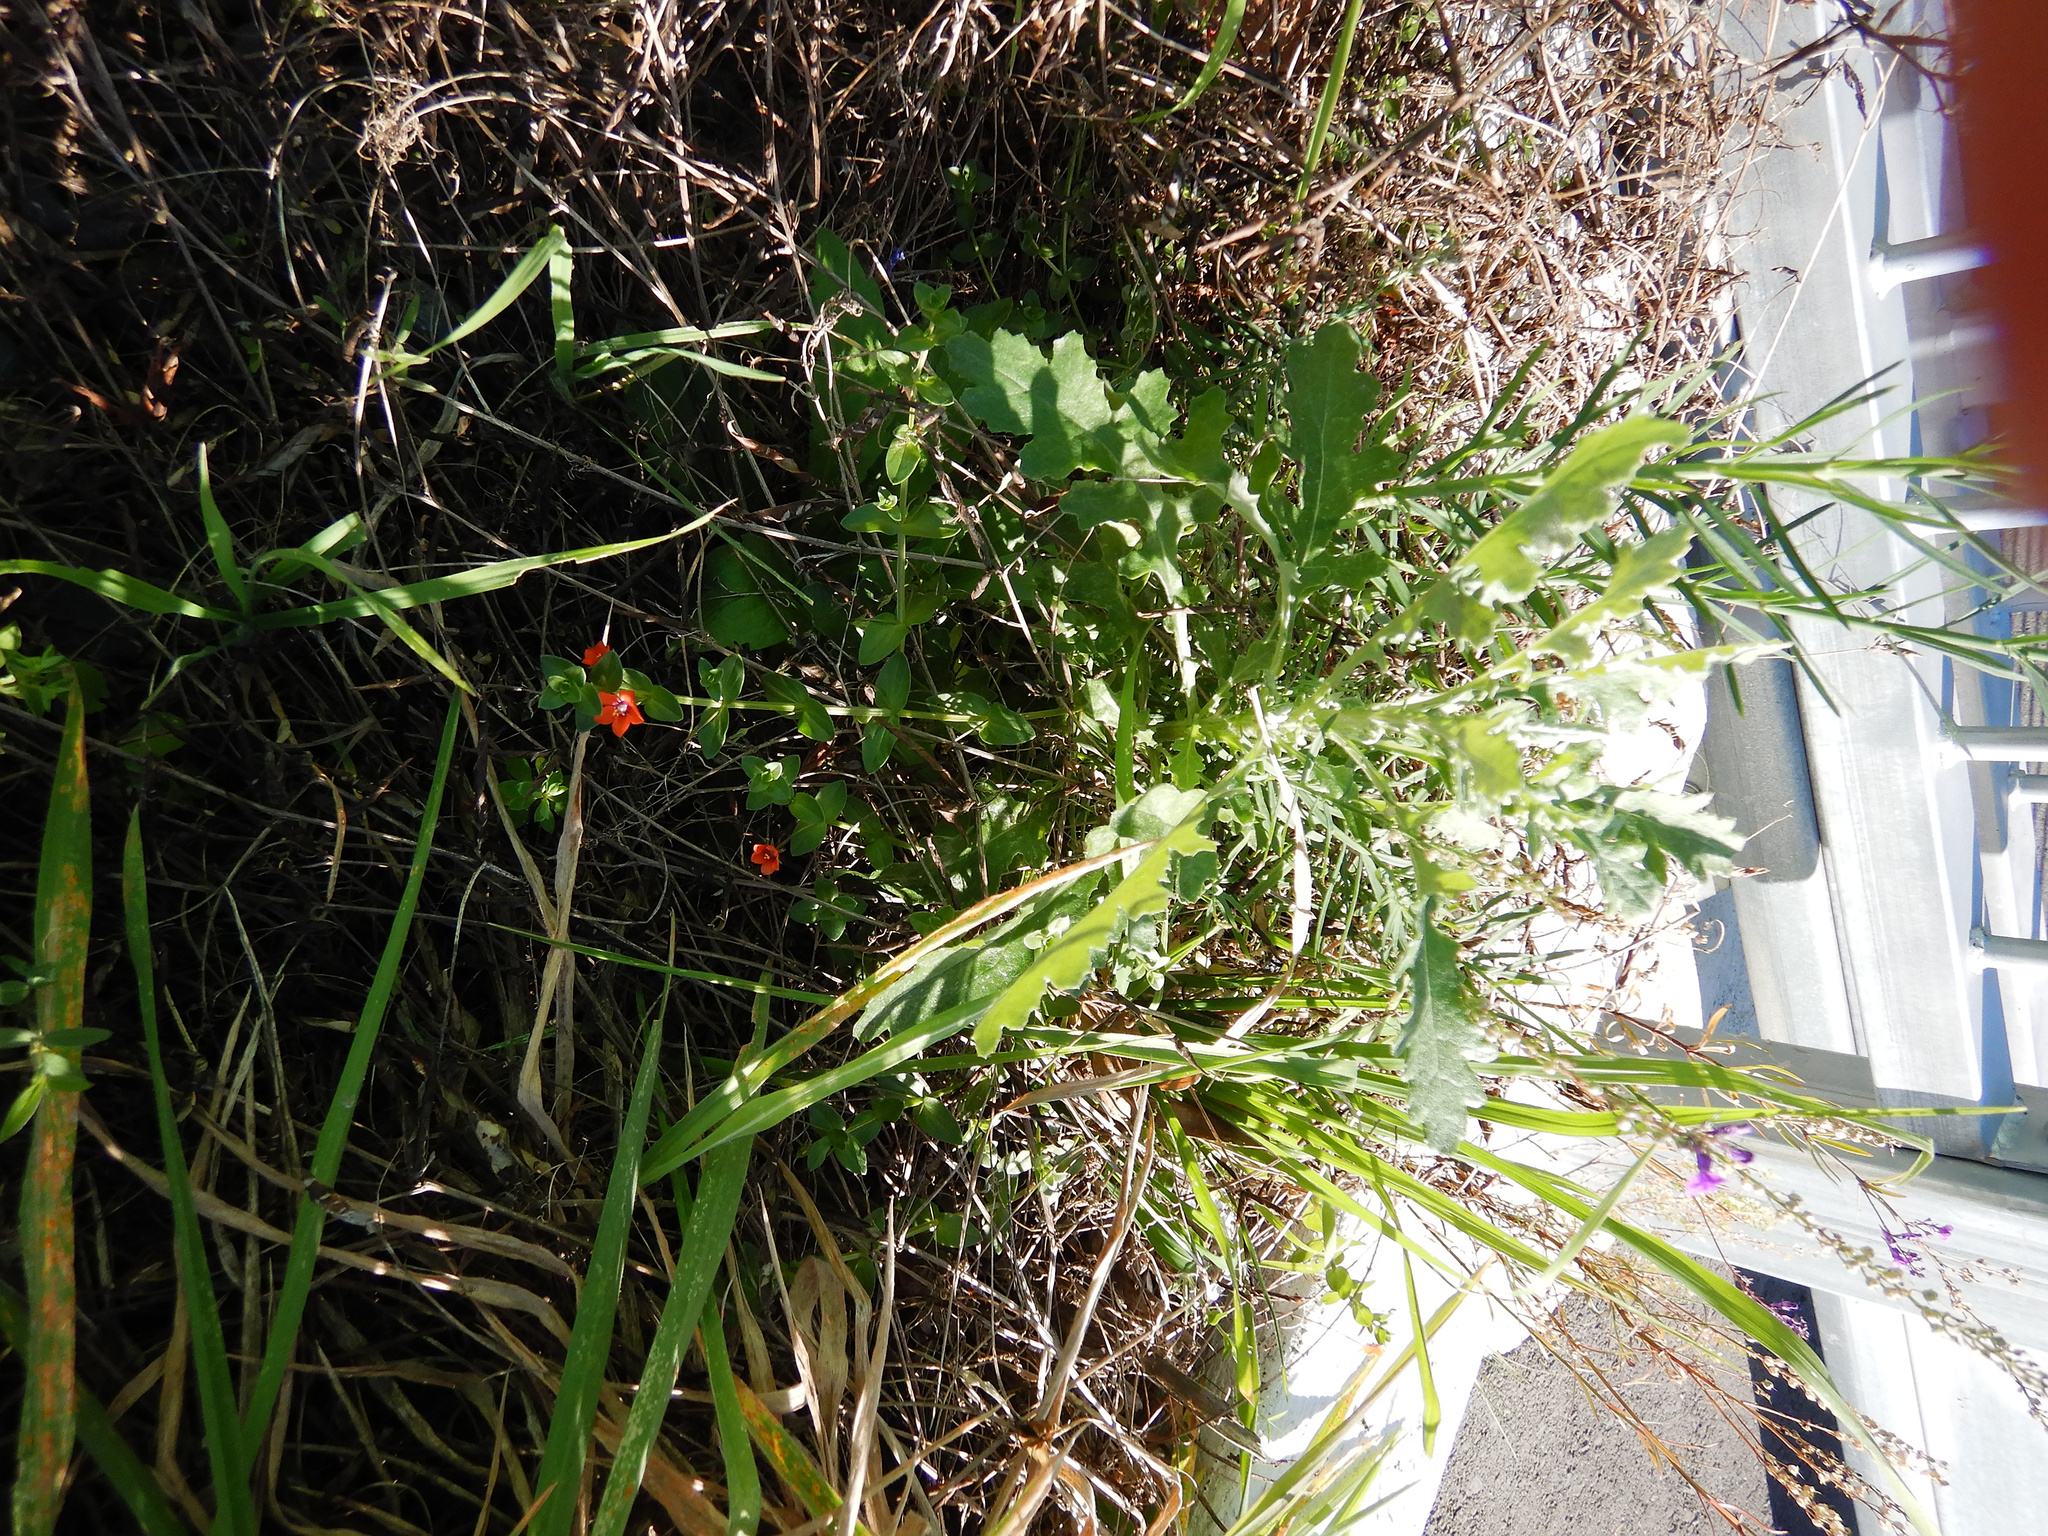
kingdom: Plantae
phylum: Tracheophyta
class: Magnoliopsida
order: Ericales
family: Primulaceae
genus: Lysimachia
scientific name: Lysimachia arvensis
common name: Scarlet pimpernel
